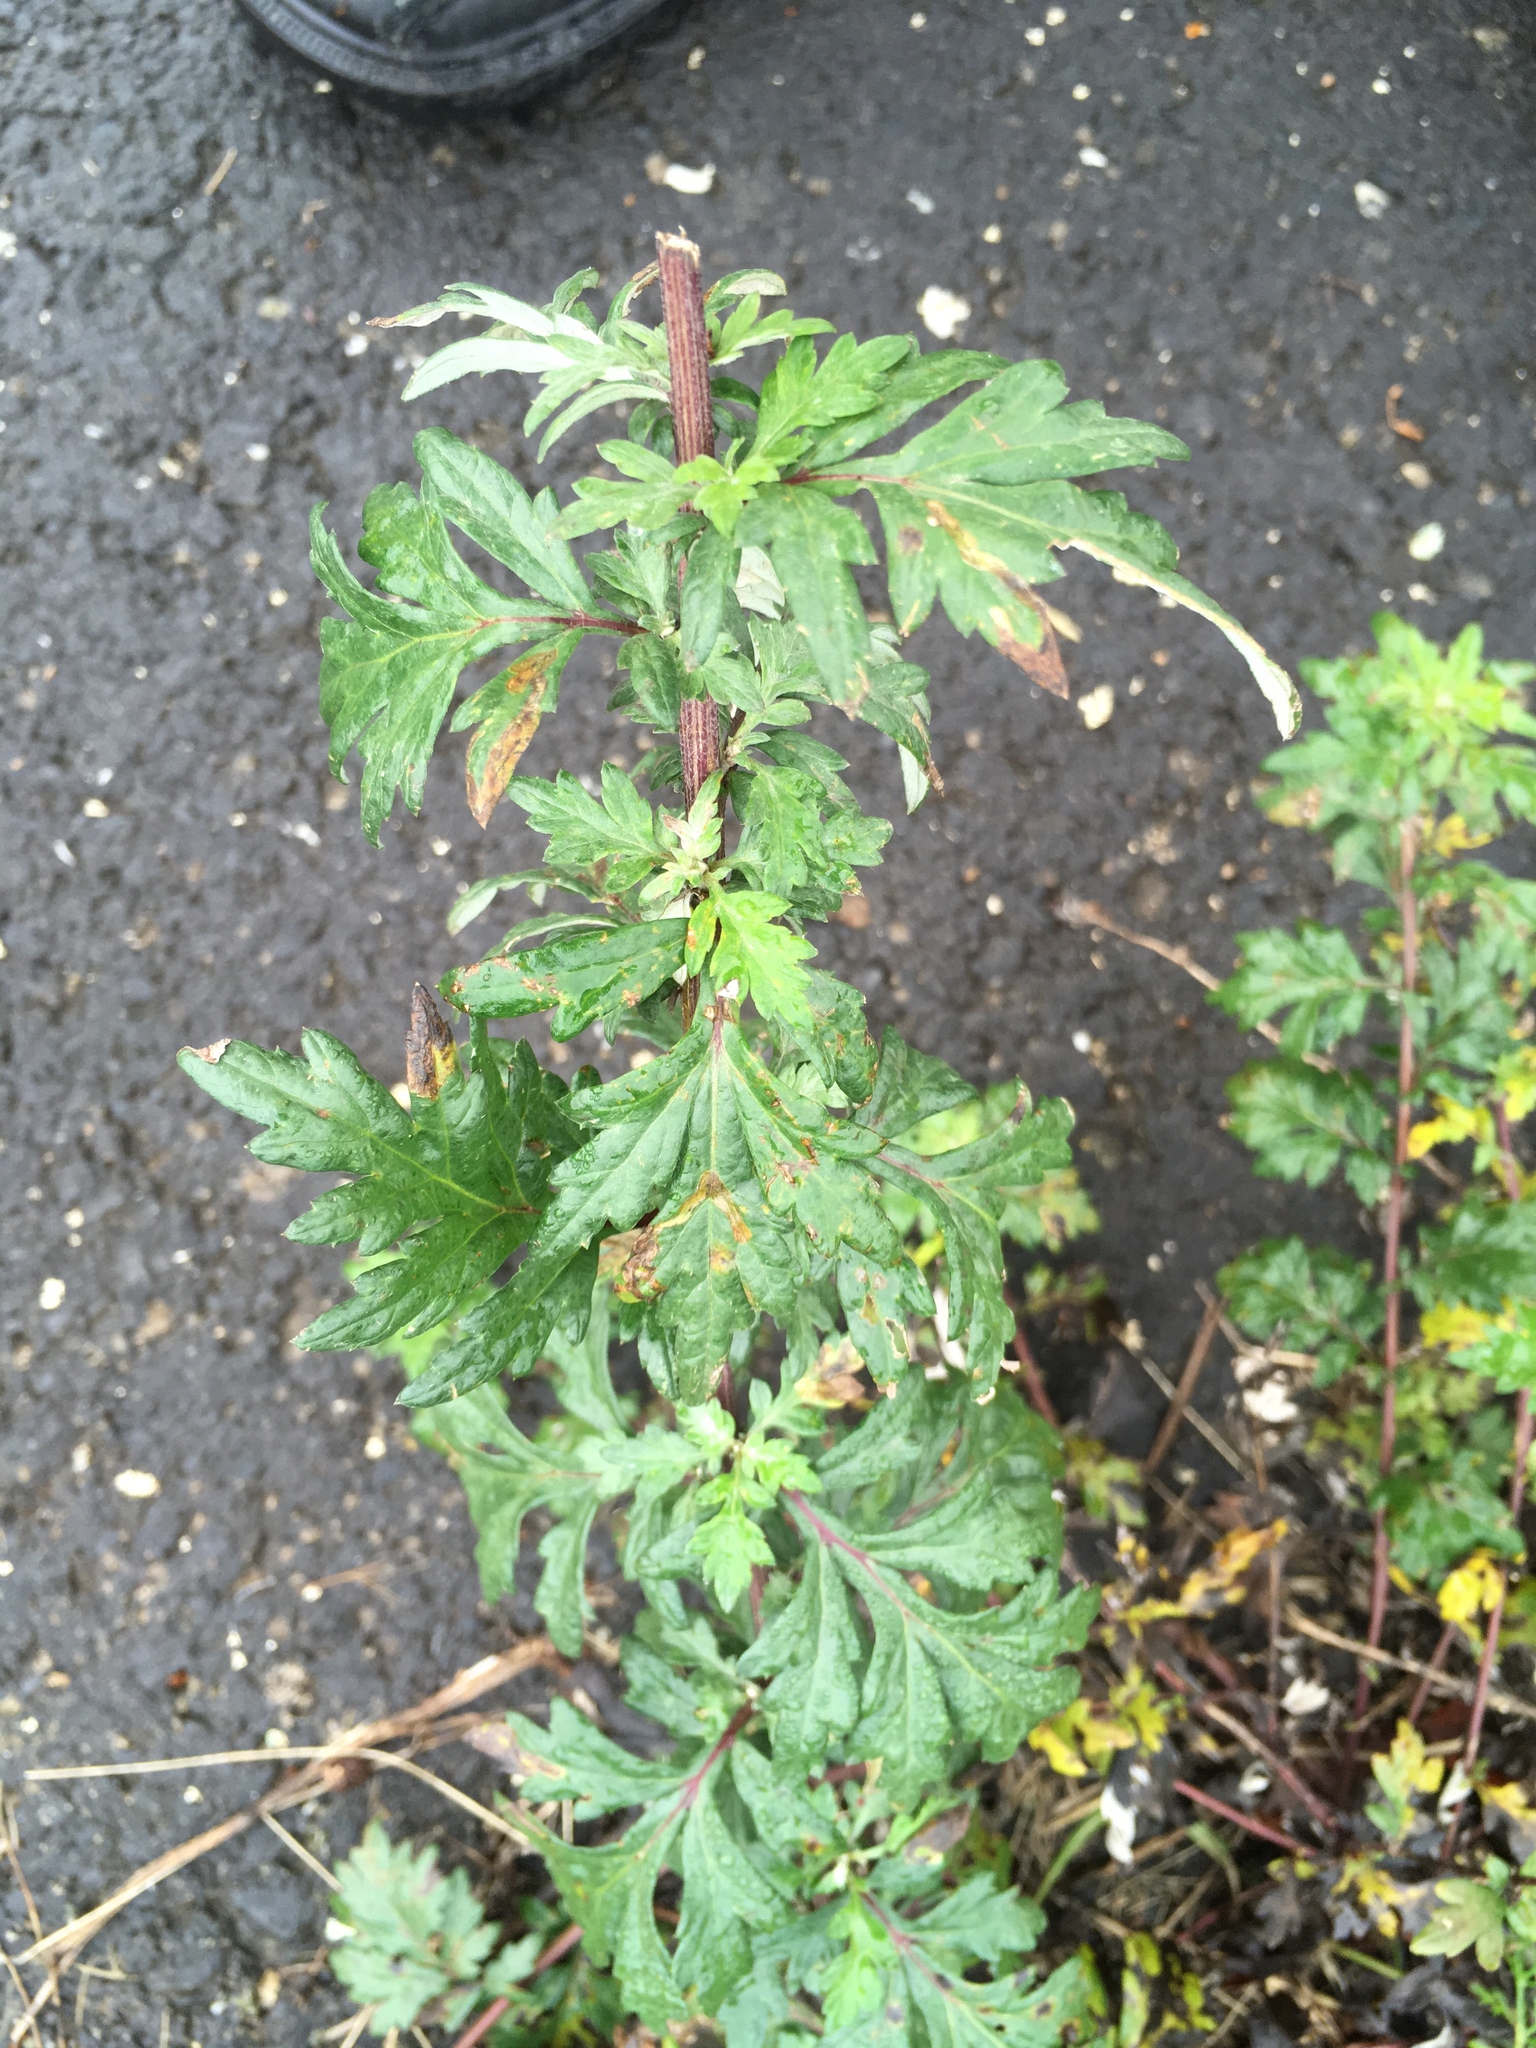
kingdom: Plantae
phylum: Tracheophyta
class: Magnoliopsida
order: Asterales
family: Asteraceae
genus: Artemisia
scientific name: Artemisia vulgaris
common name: Mugwort
